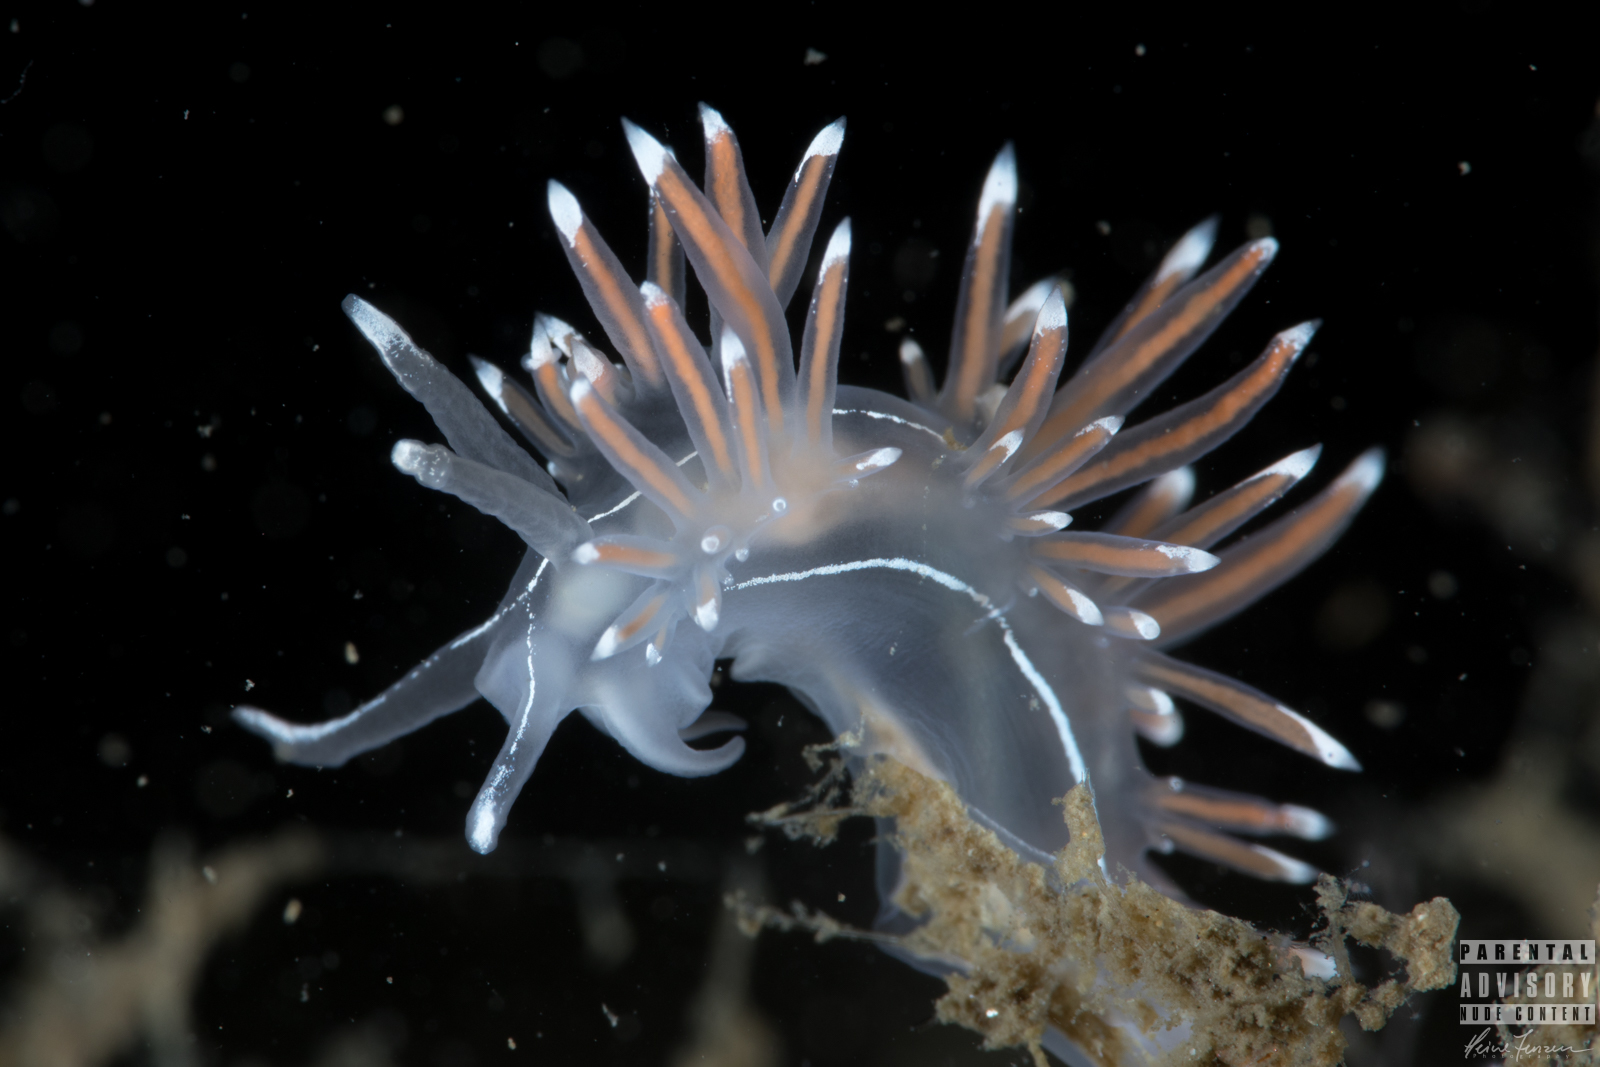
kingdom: Animalia
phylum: Mollusca
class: Gastropoda
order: Nudibranchia
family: Coryphellidae
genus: Coryphella
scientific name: Coryphella lineata
